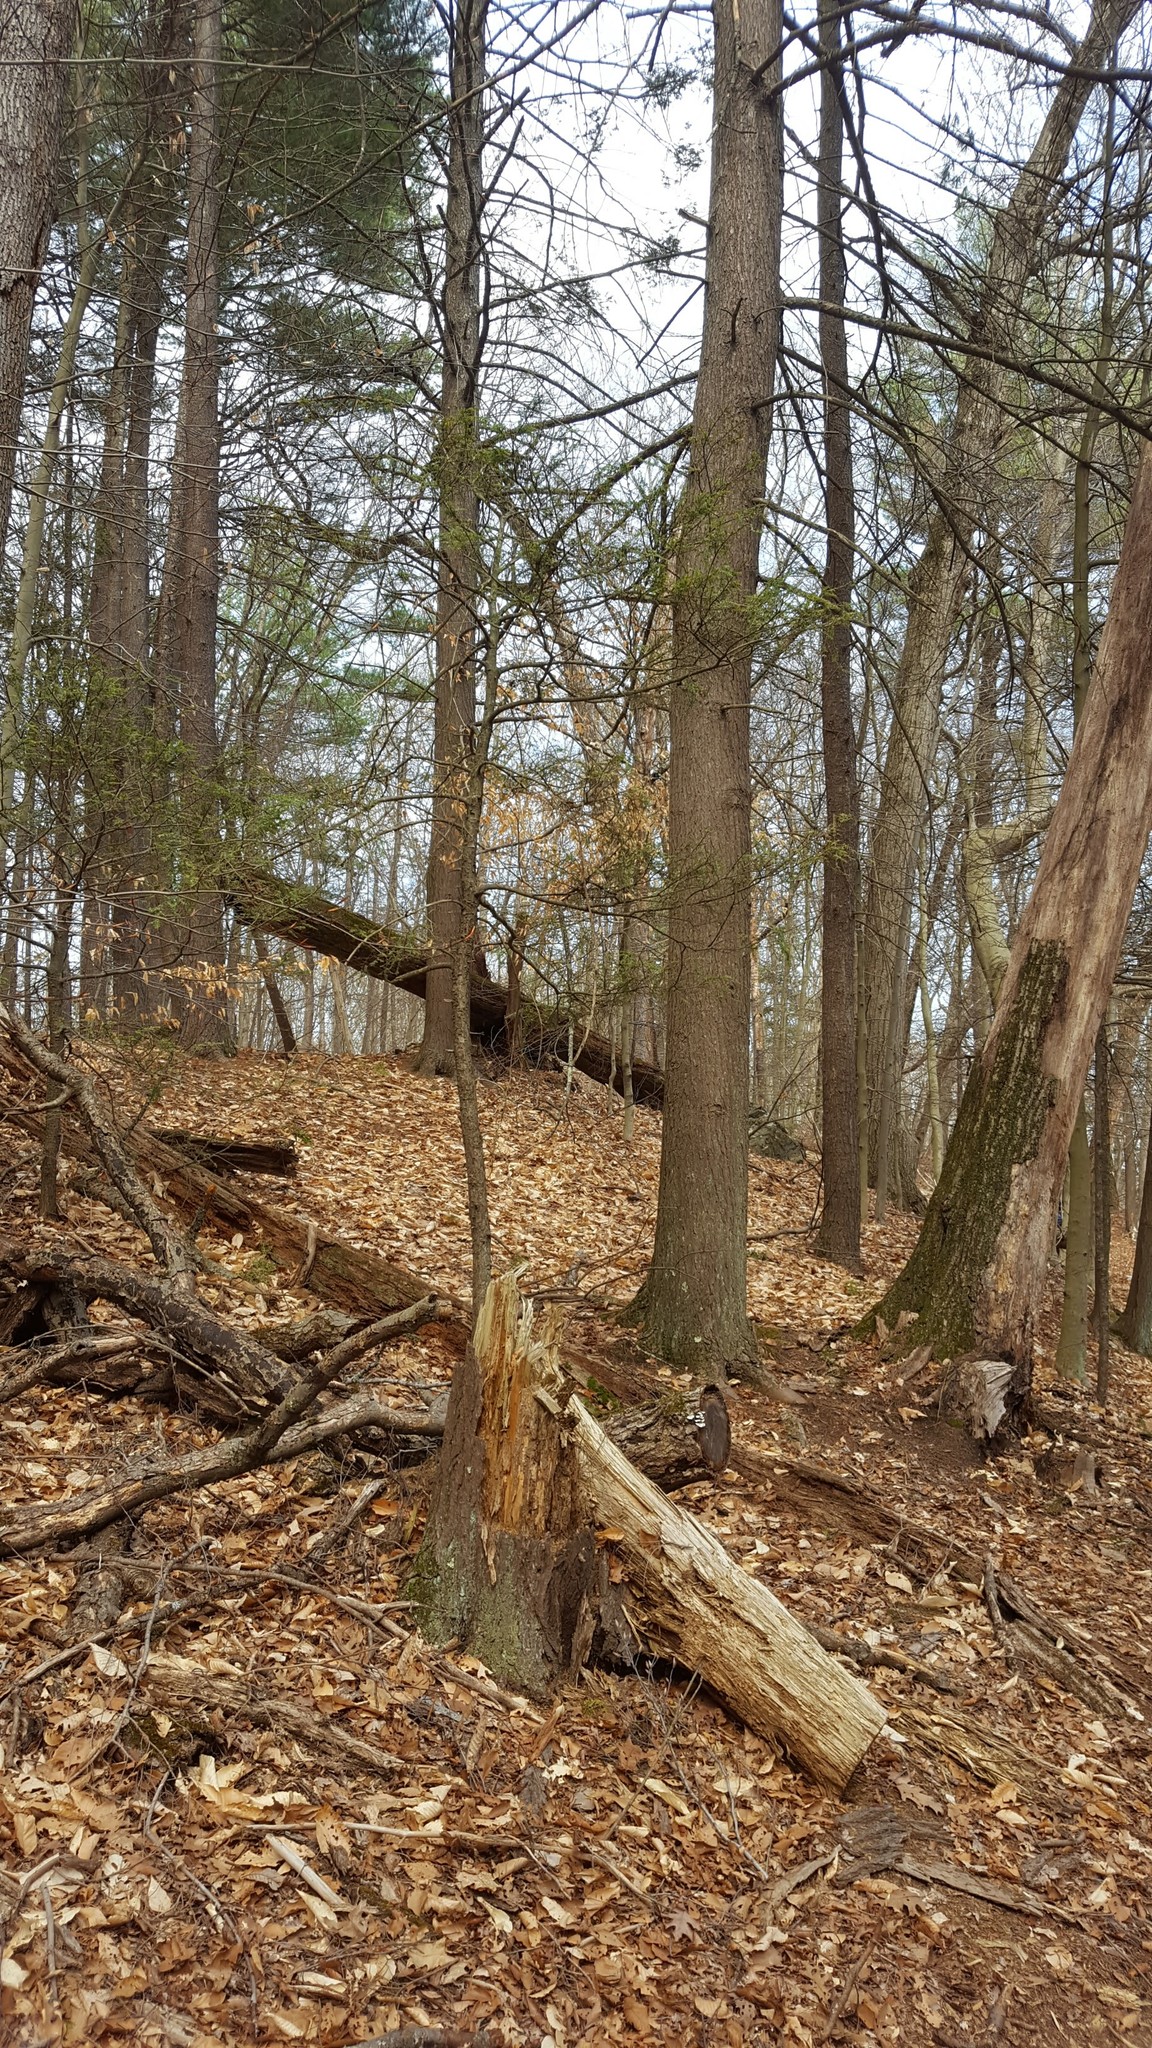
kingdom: Plantae
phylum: Tracheophyta
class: Pinopsida
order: Pinales
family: Pinaceae
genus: Tsuga
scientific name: Tsuga canadensis
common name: Eastern hemlock
